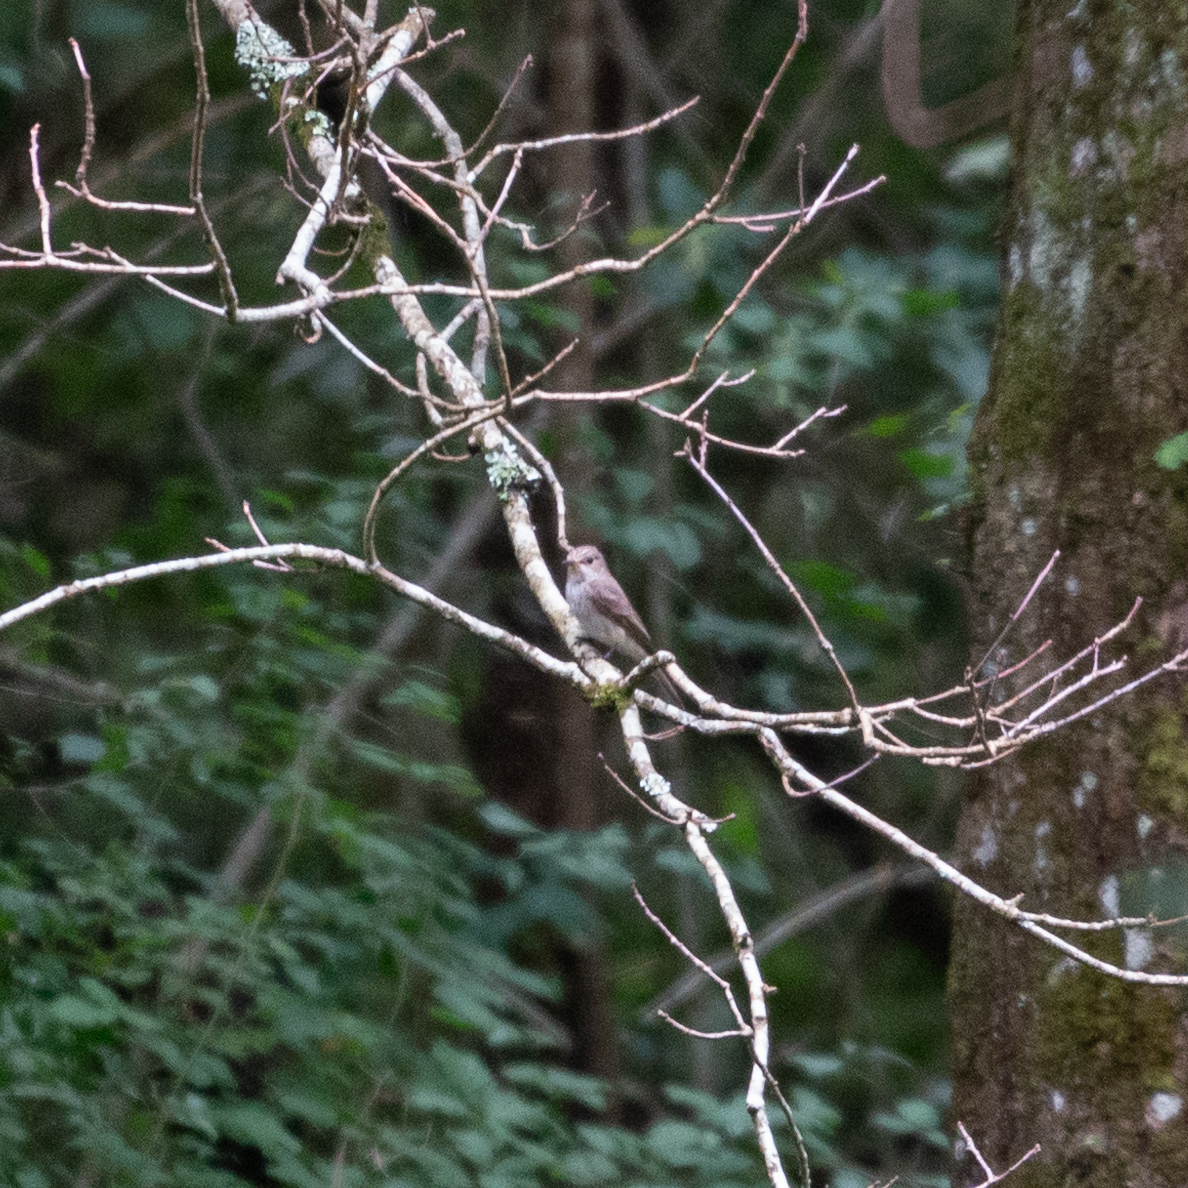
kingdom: Animalia
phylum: Chordata
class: Aves
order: Passeriformes
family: Muscicapidae
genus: Muscicapa
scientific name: Muscicapa striata
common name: Spotted flycatcher
